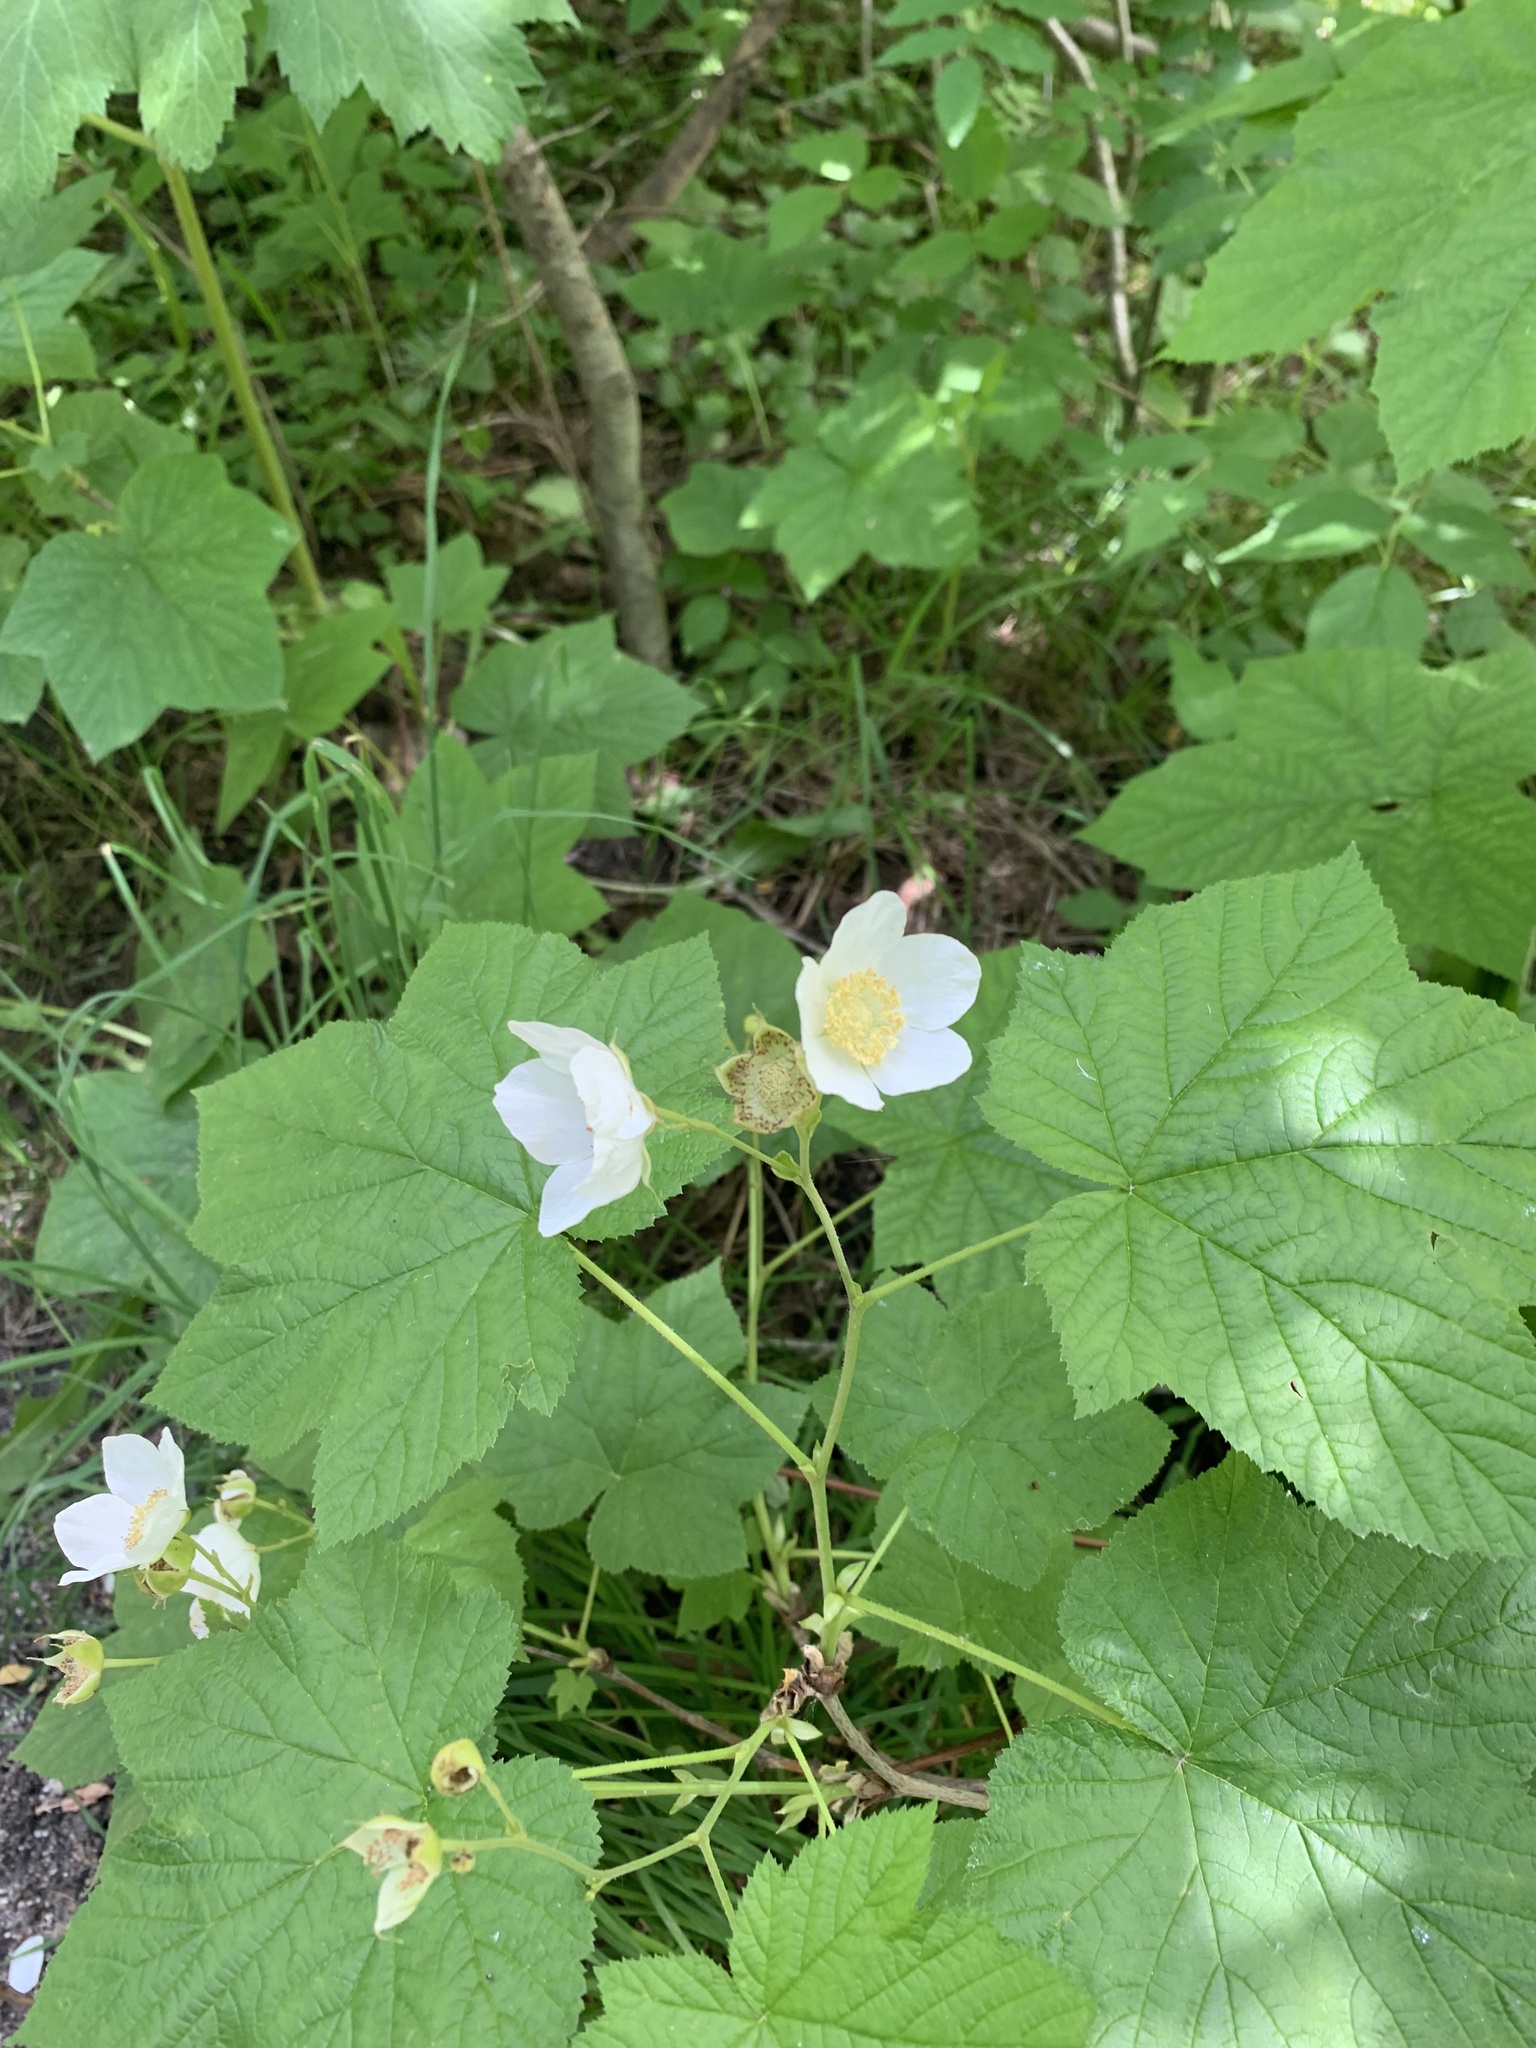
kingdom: Plantae
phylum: Tracheophyta
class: Magnoliopsida
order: Rosales
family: Rosaceae
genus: Rubus
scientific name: Rubus parviflorus
